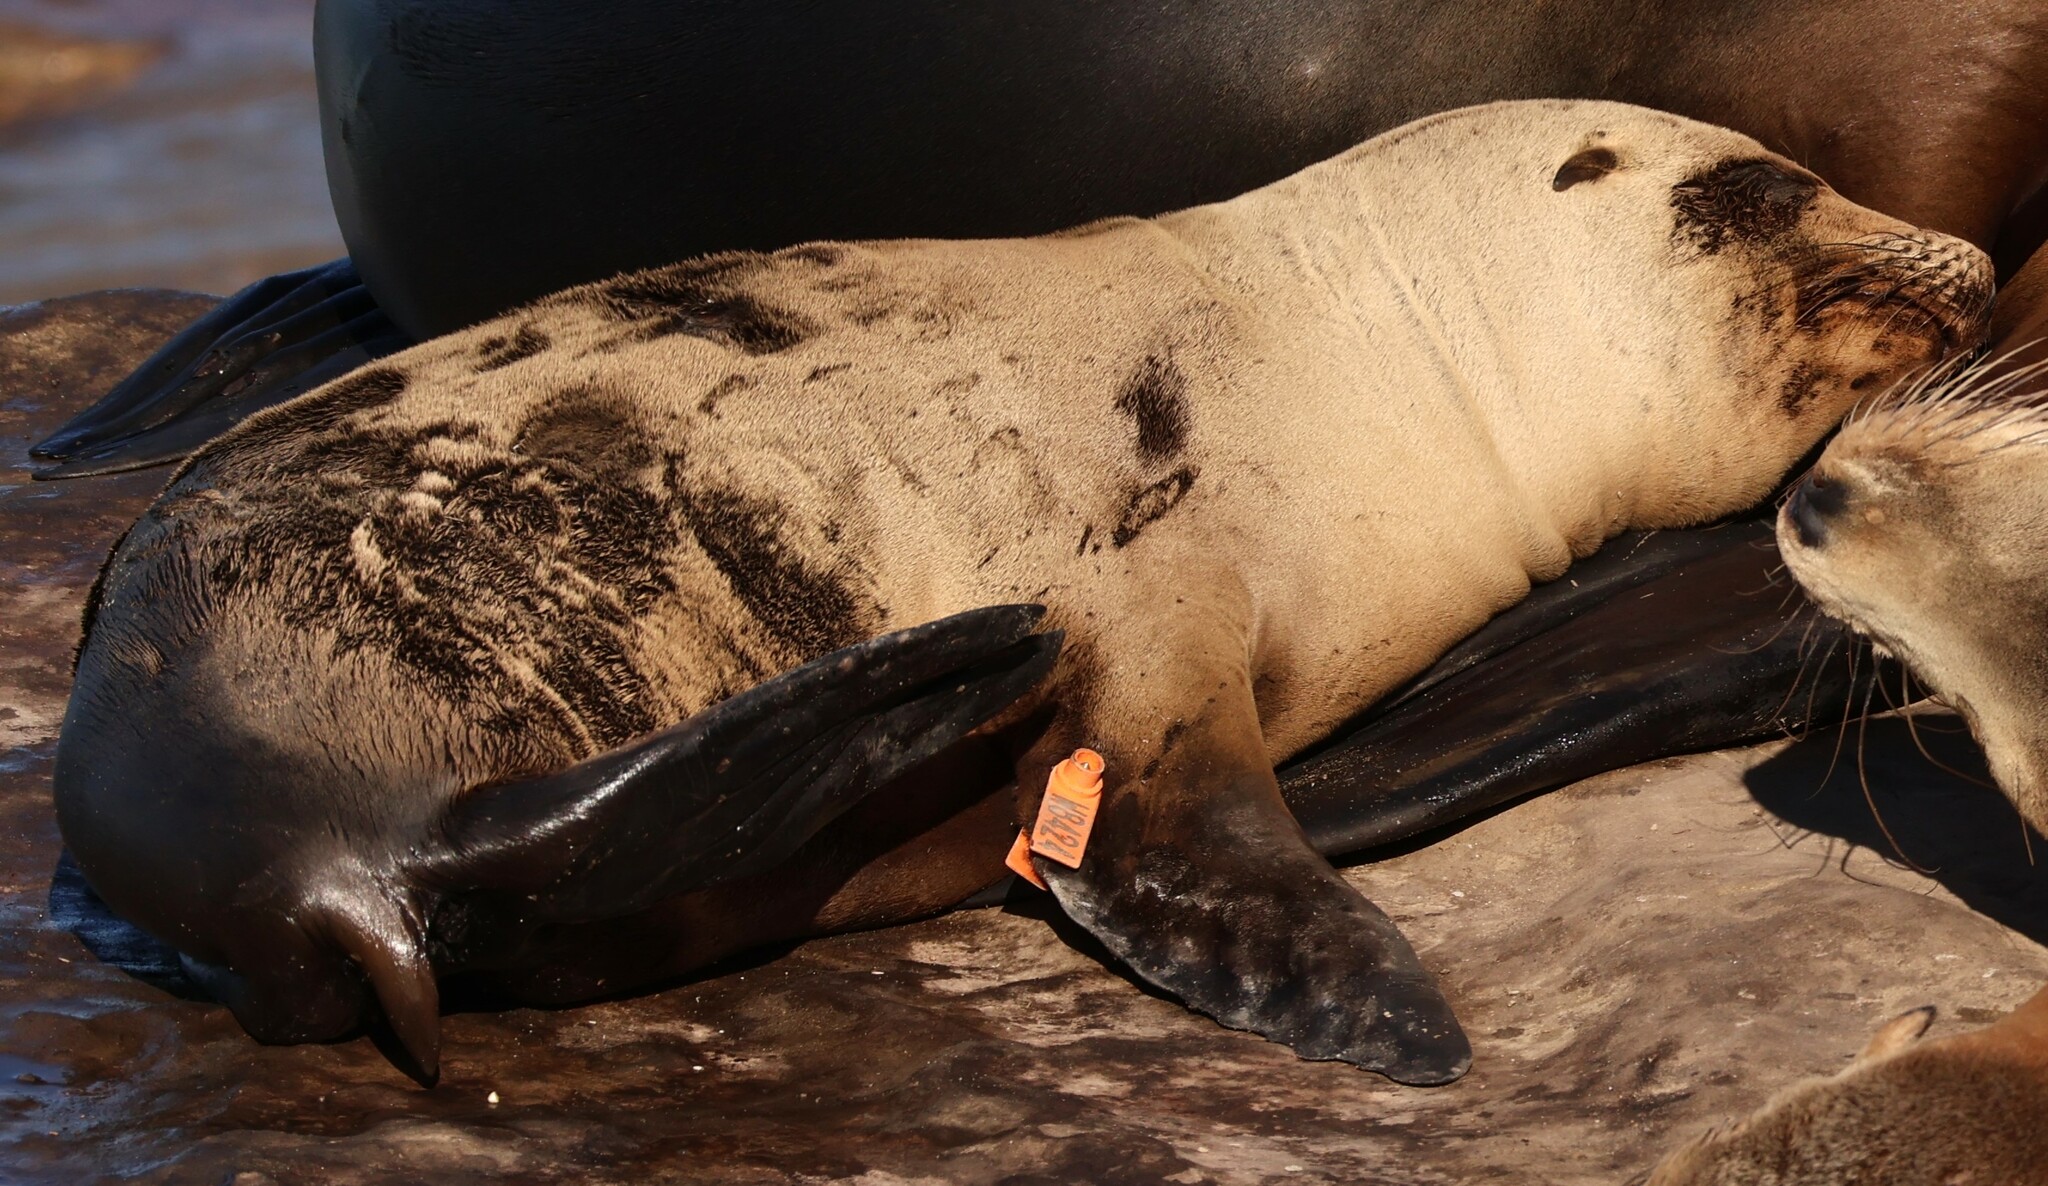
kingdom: Animalia
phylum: Chordata
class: Mammalia
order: Carnivora
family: Otariidae
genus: Zalophus
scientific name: Zalophus californianus
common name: California sea lion
